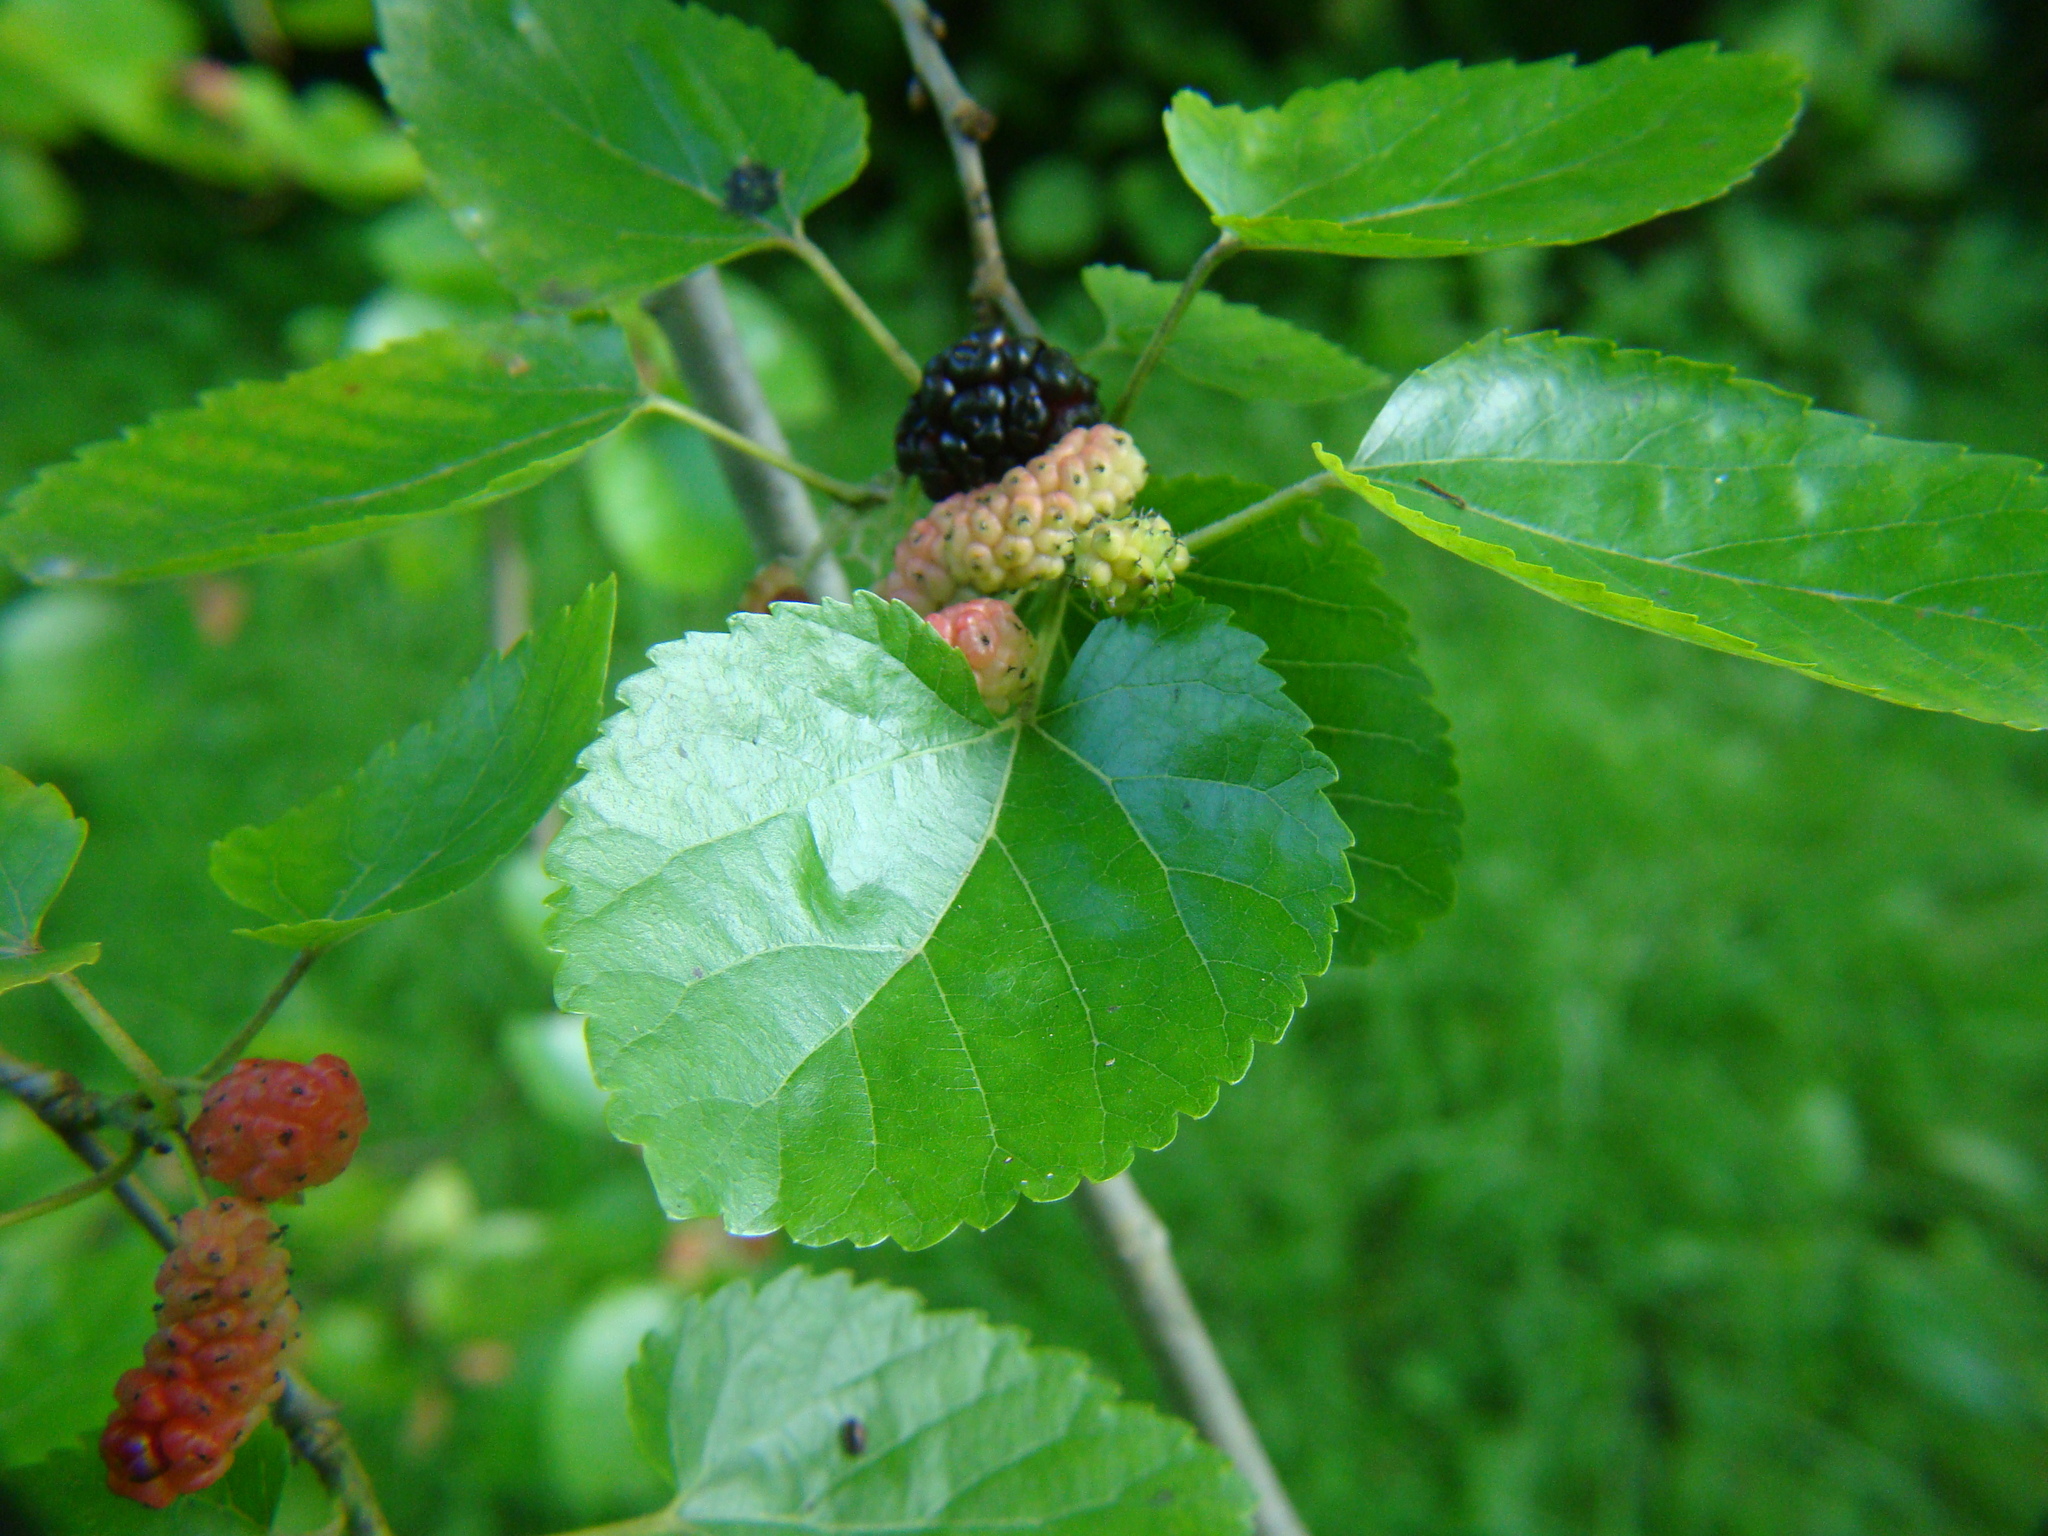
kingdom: Plantae
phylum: Tracheophyta
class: Magnoliopsida
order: Rosales
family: Moraceae
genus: Morus
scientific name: Morus alba
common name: White mulberry
